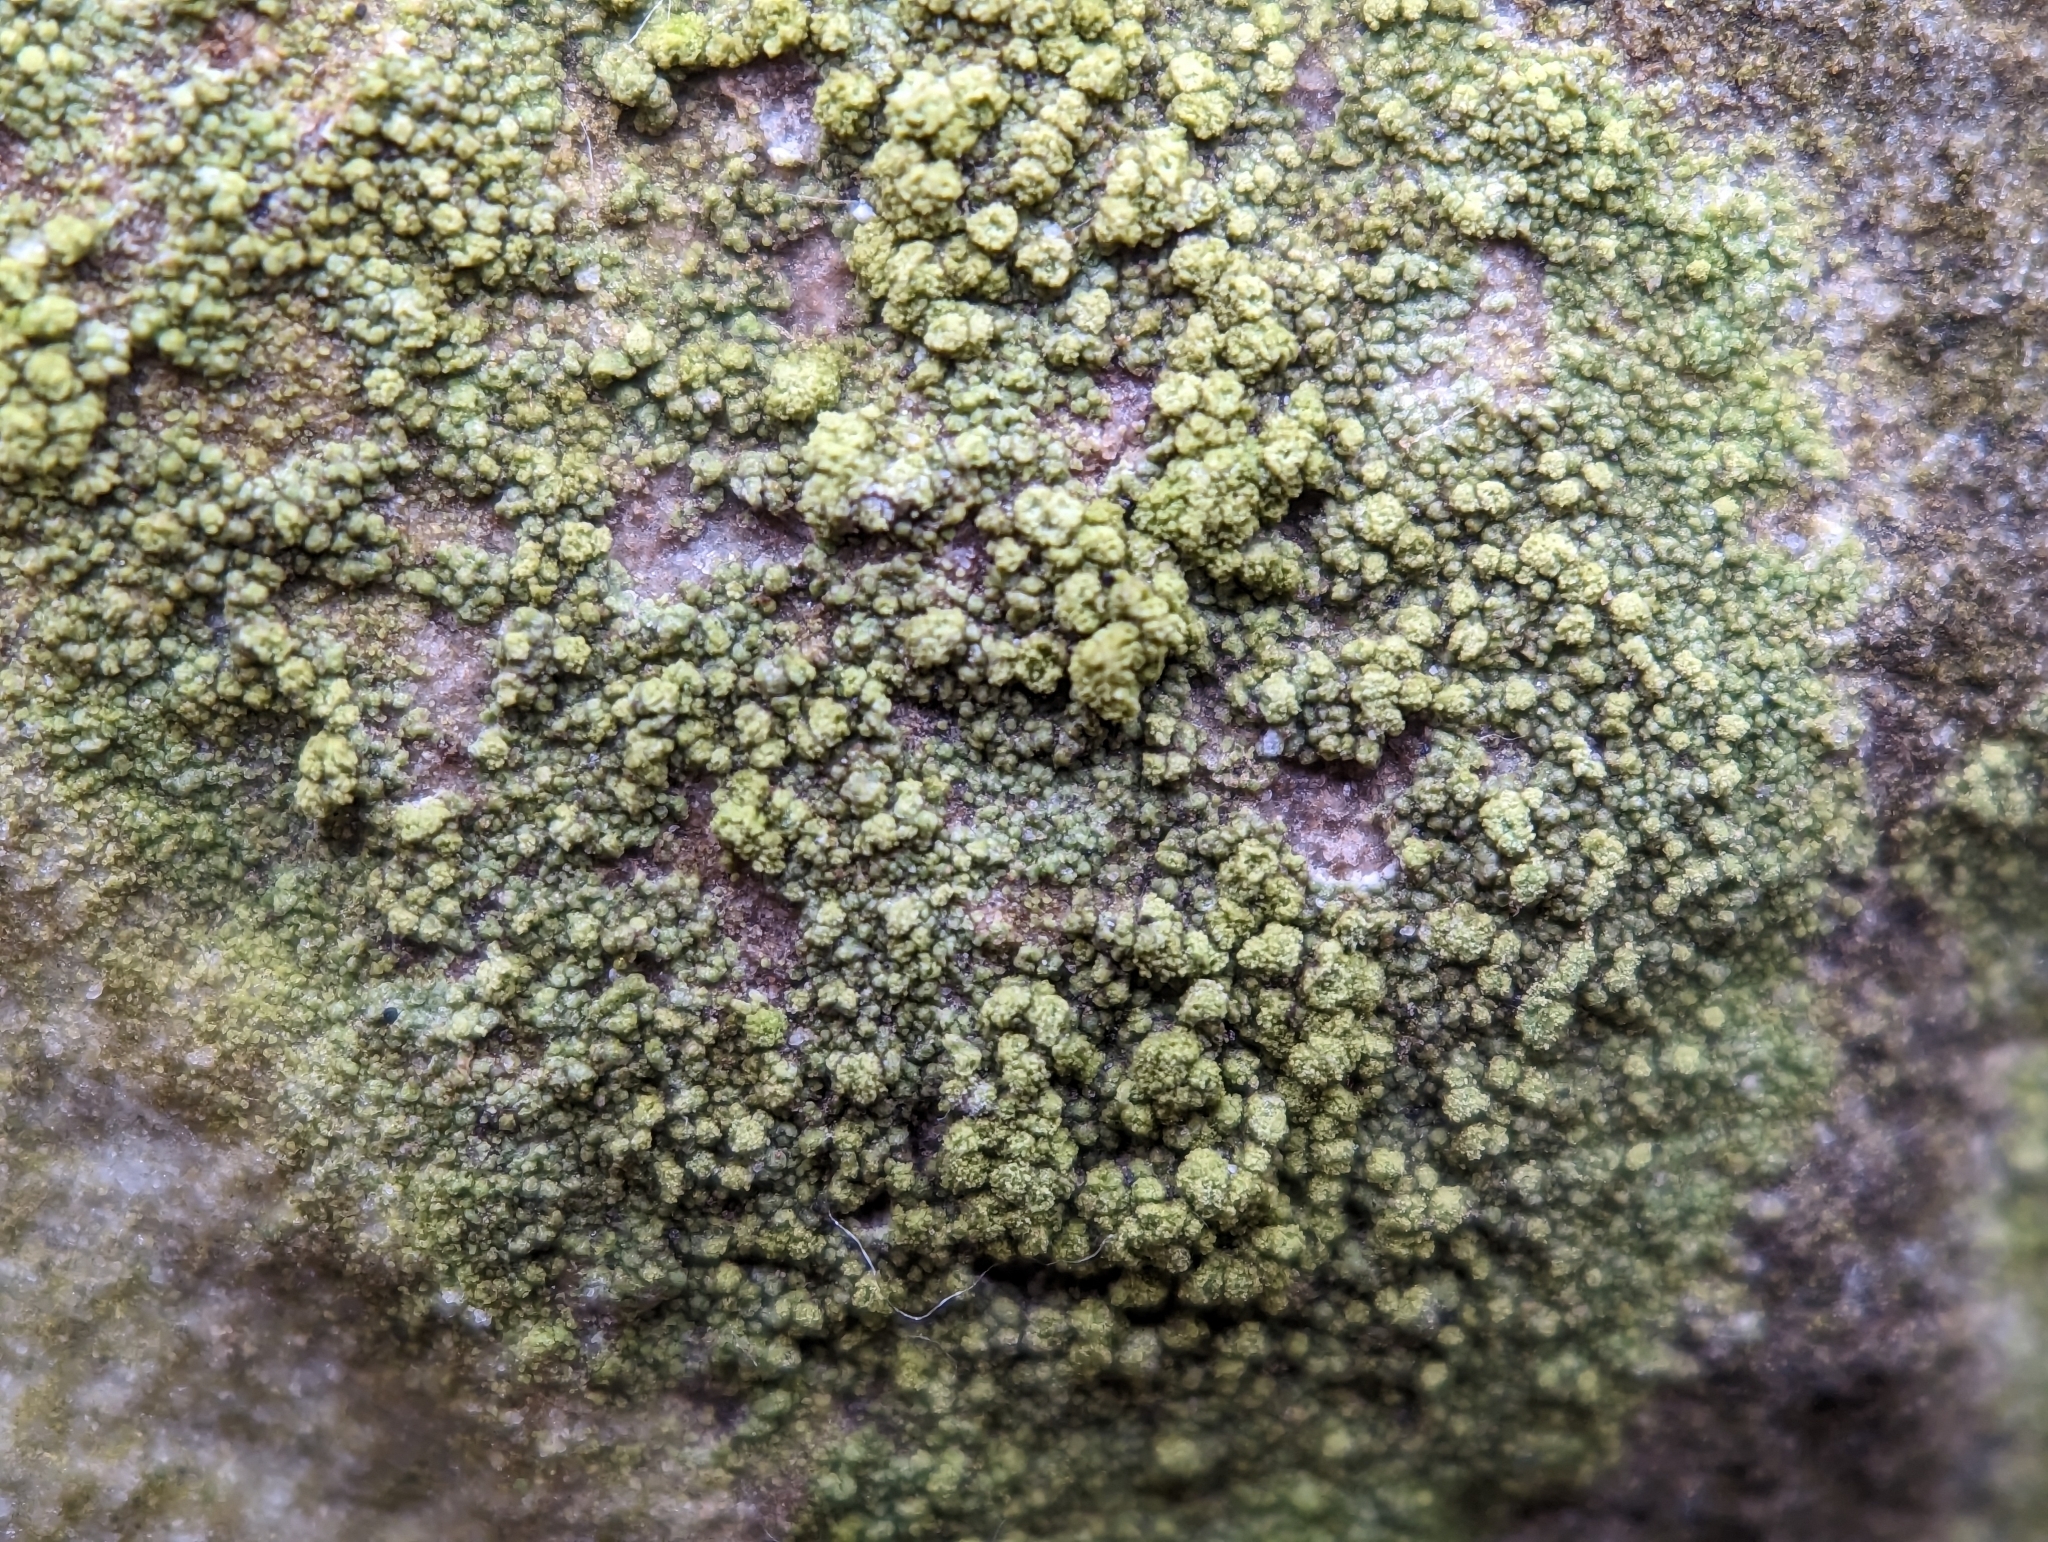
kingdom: Fungi
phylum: Ascomycota
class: Lecanoromycetes
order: Schaereriales
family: Schaereriaceae
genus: Ropalospora
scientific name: Ropalospora viridis
